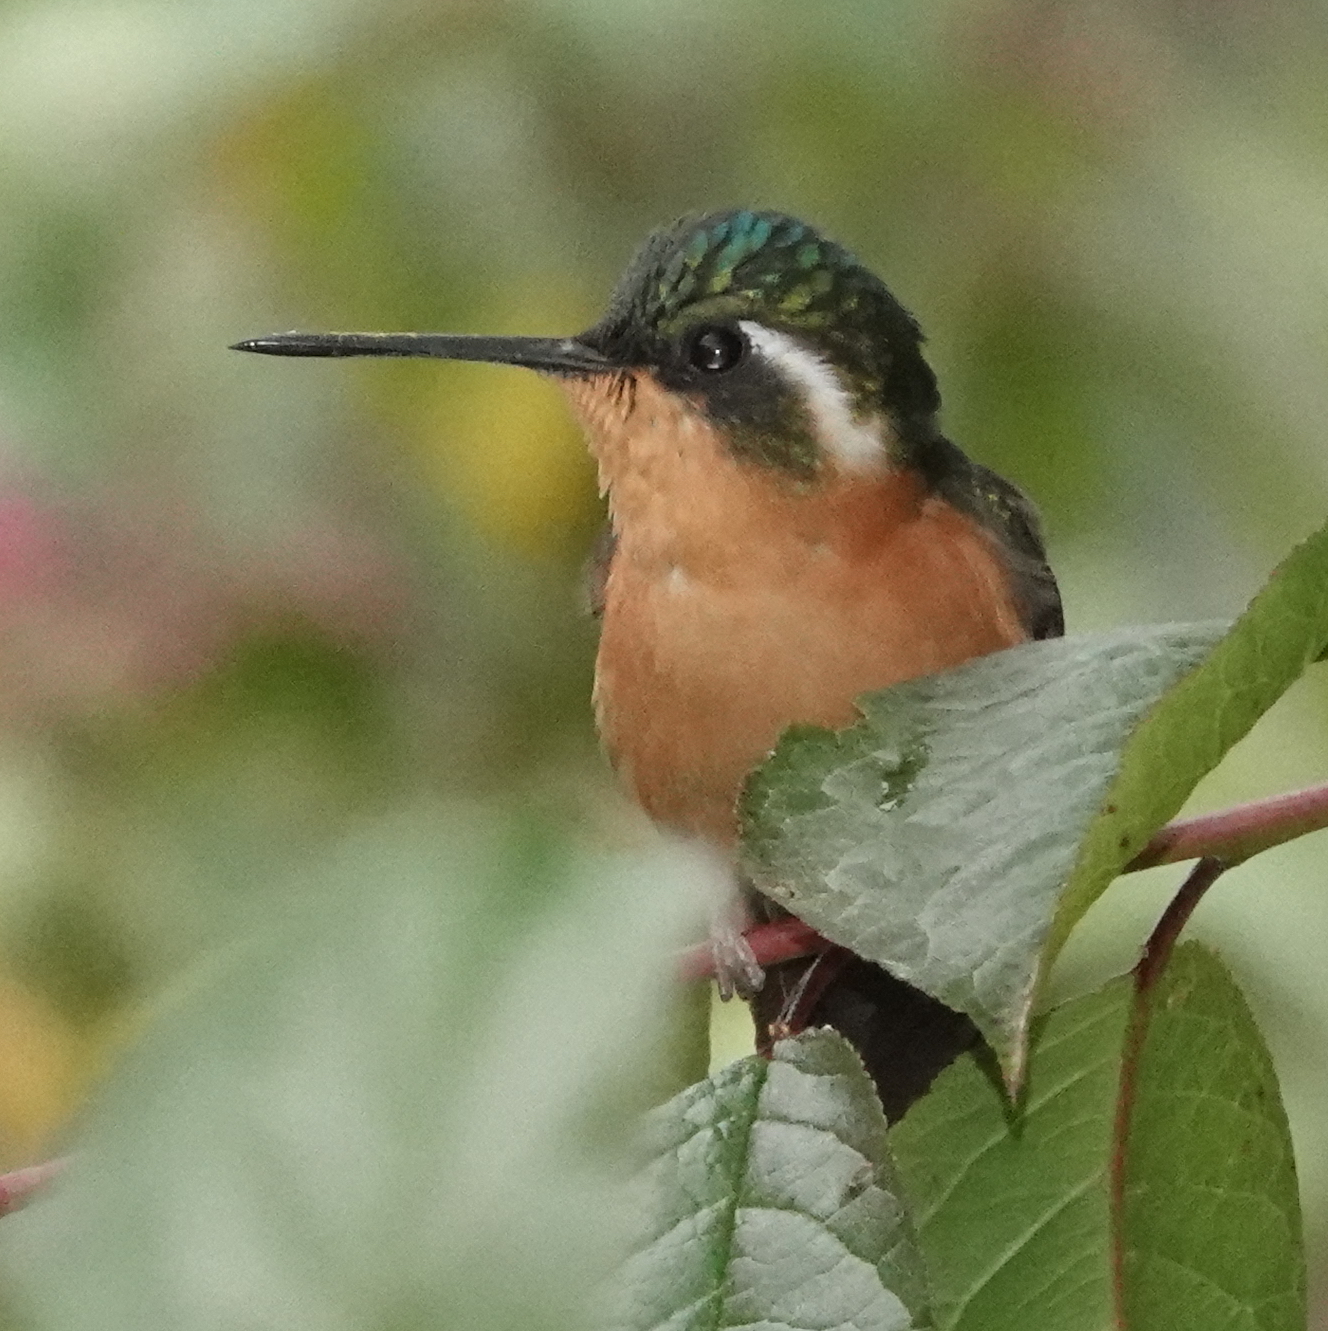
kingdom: Animalia
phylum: Chordata
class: Aves
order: Apodiformes
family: Trochilidae
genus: Lampornis
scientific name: Lampornis castaneoventris
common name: White-throated mountain-gem
